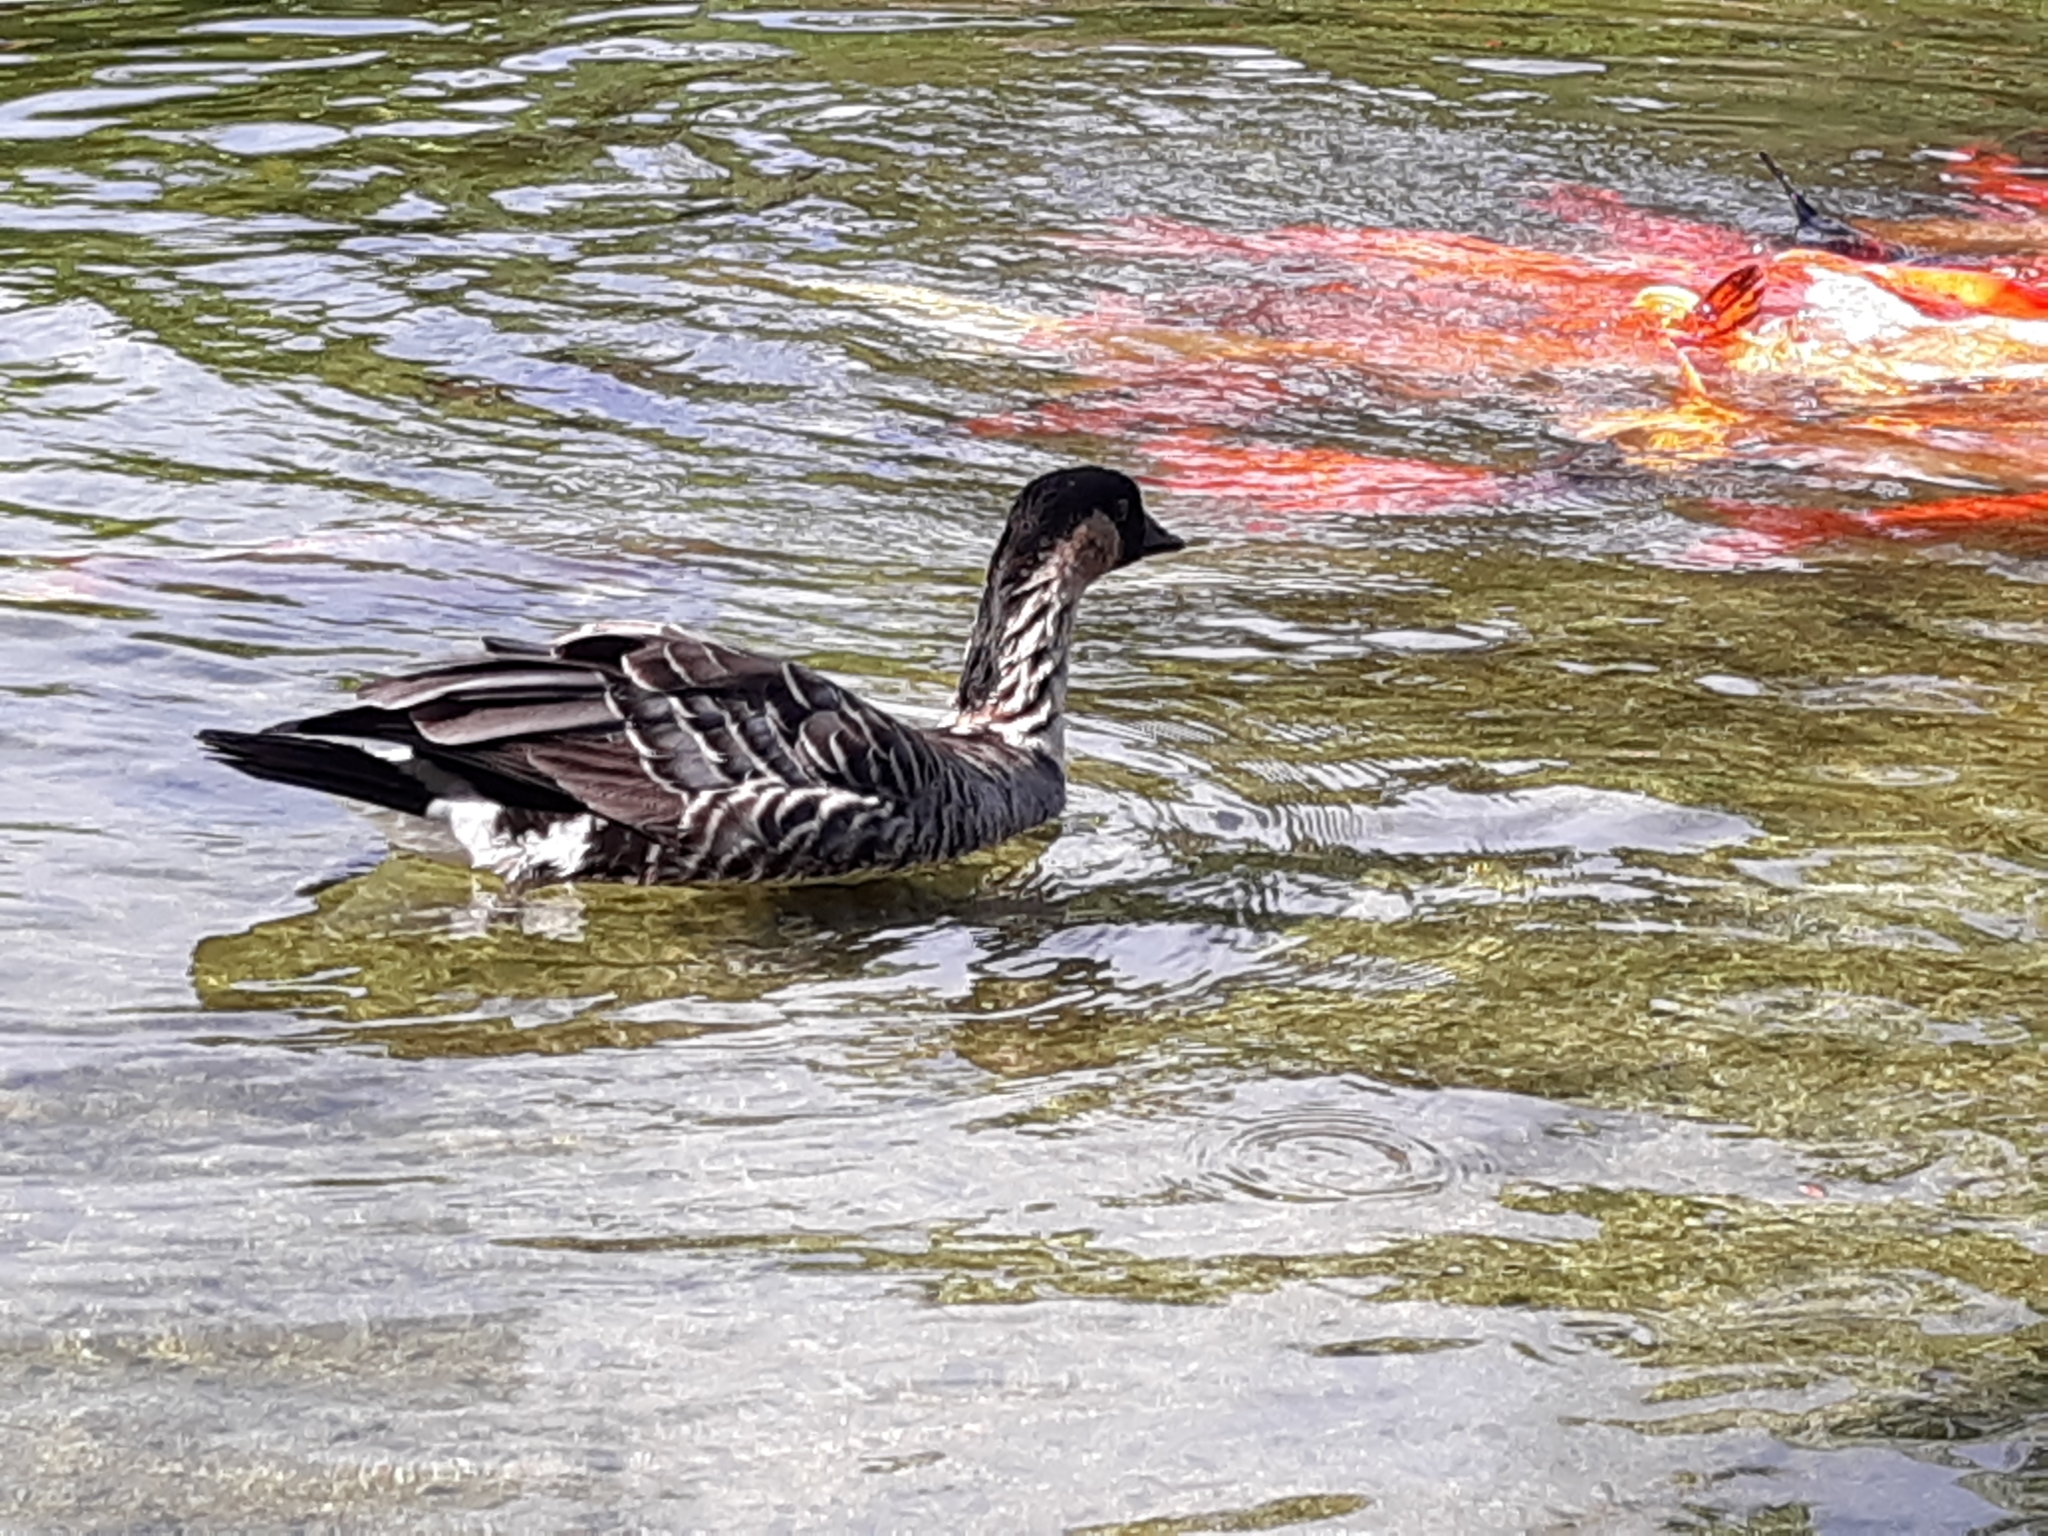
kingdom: Animalia
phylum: Chordata
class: Aves
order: Anseriformes
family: Anatidae
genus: Branta
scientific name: Branta sandvicensis
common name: Nene
